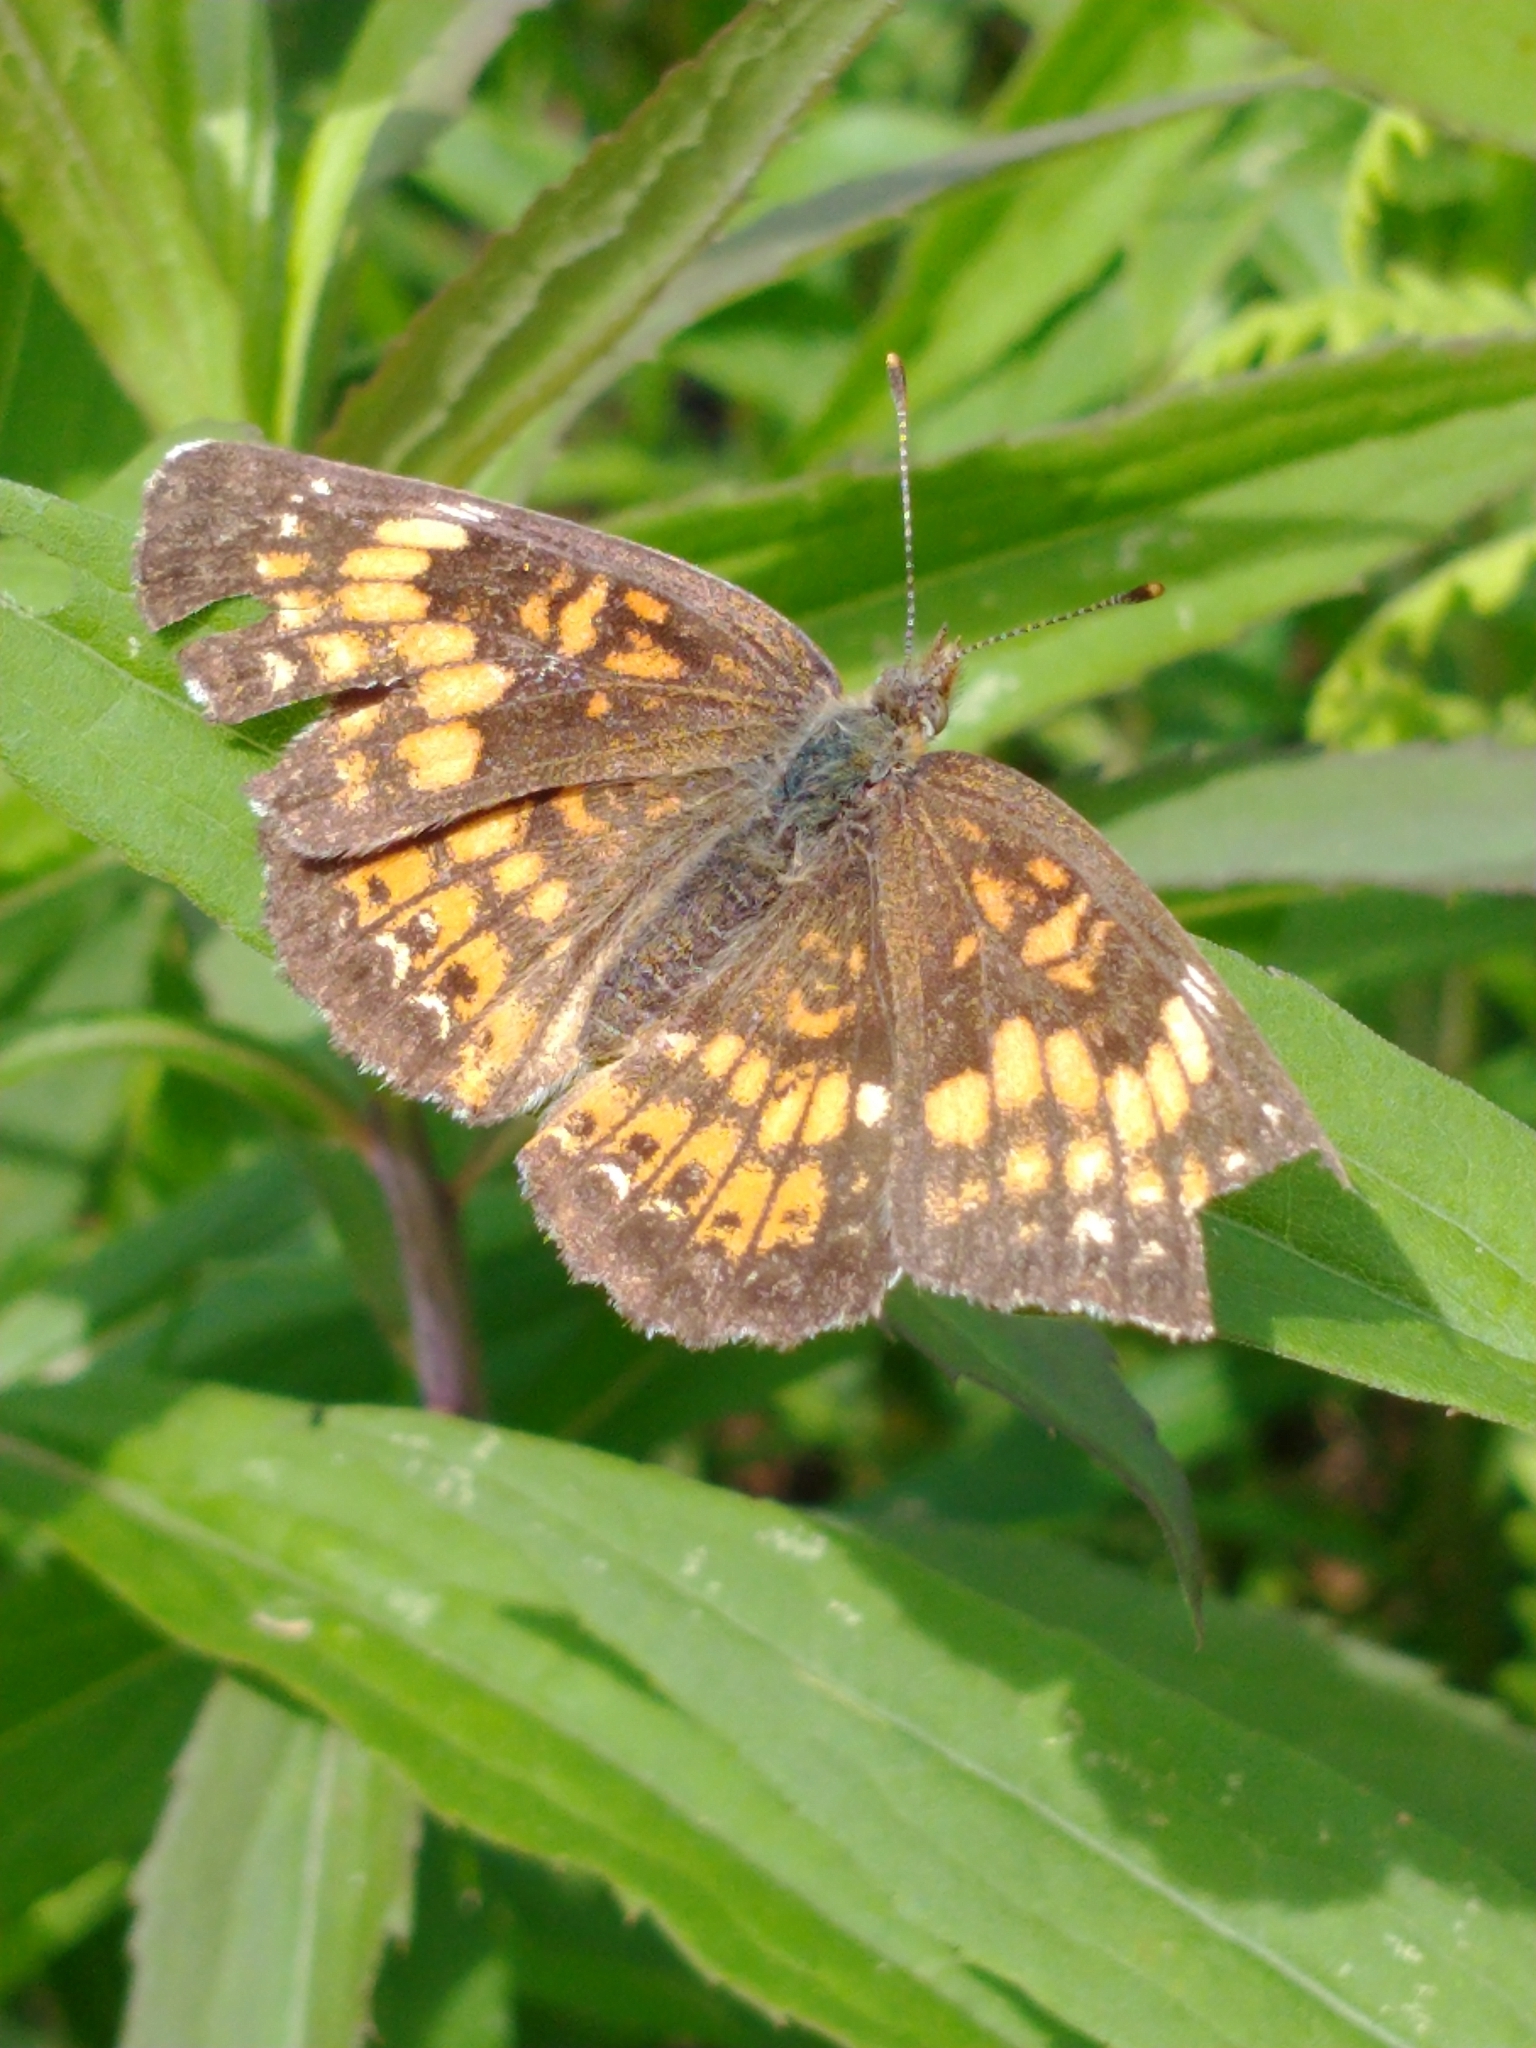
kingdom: Animalia
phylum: Arthropoda
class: Insecta
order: Lepidoptera
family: Nymphalidae
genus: Chlosyne
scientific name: Chlosyne harrisii
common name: Harris's checkerspot
